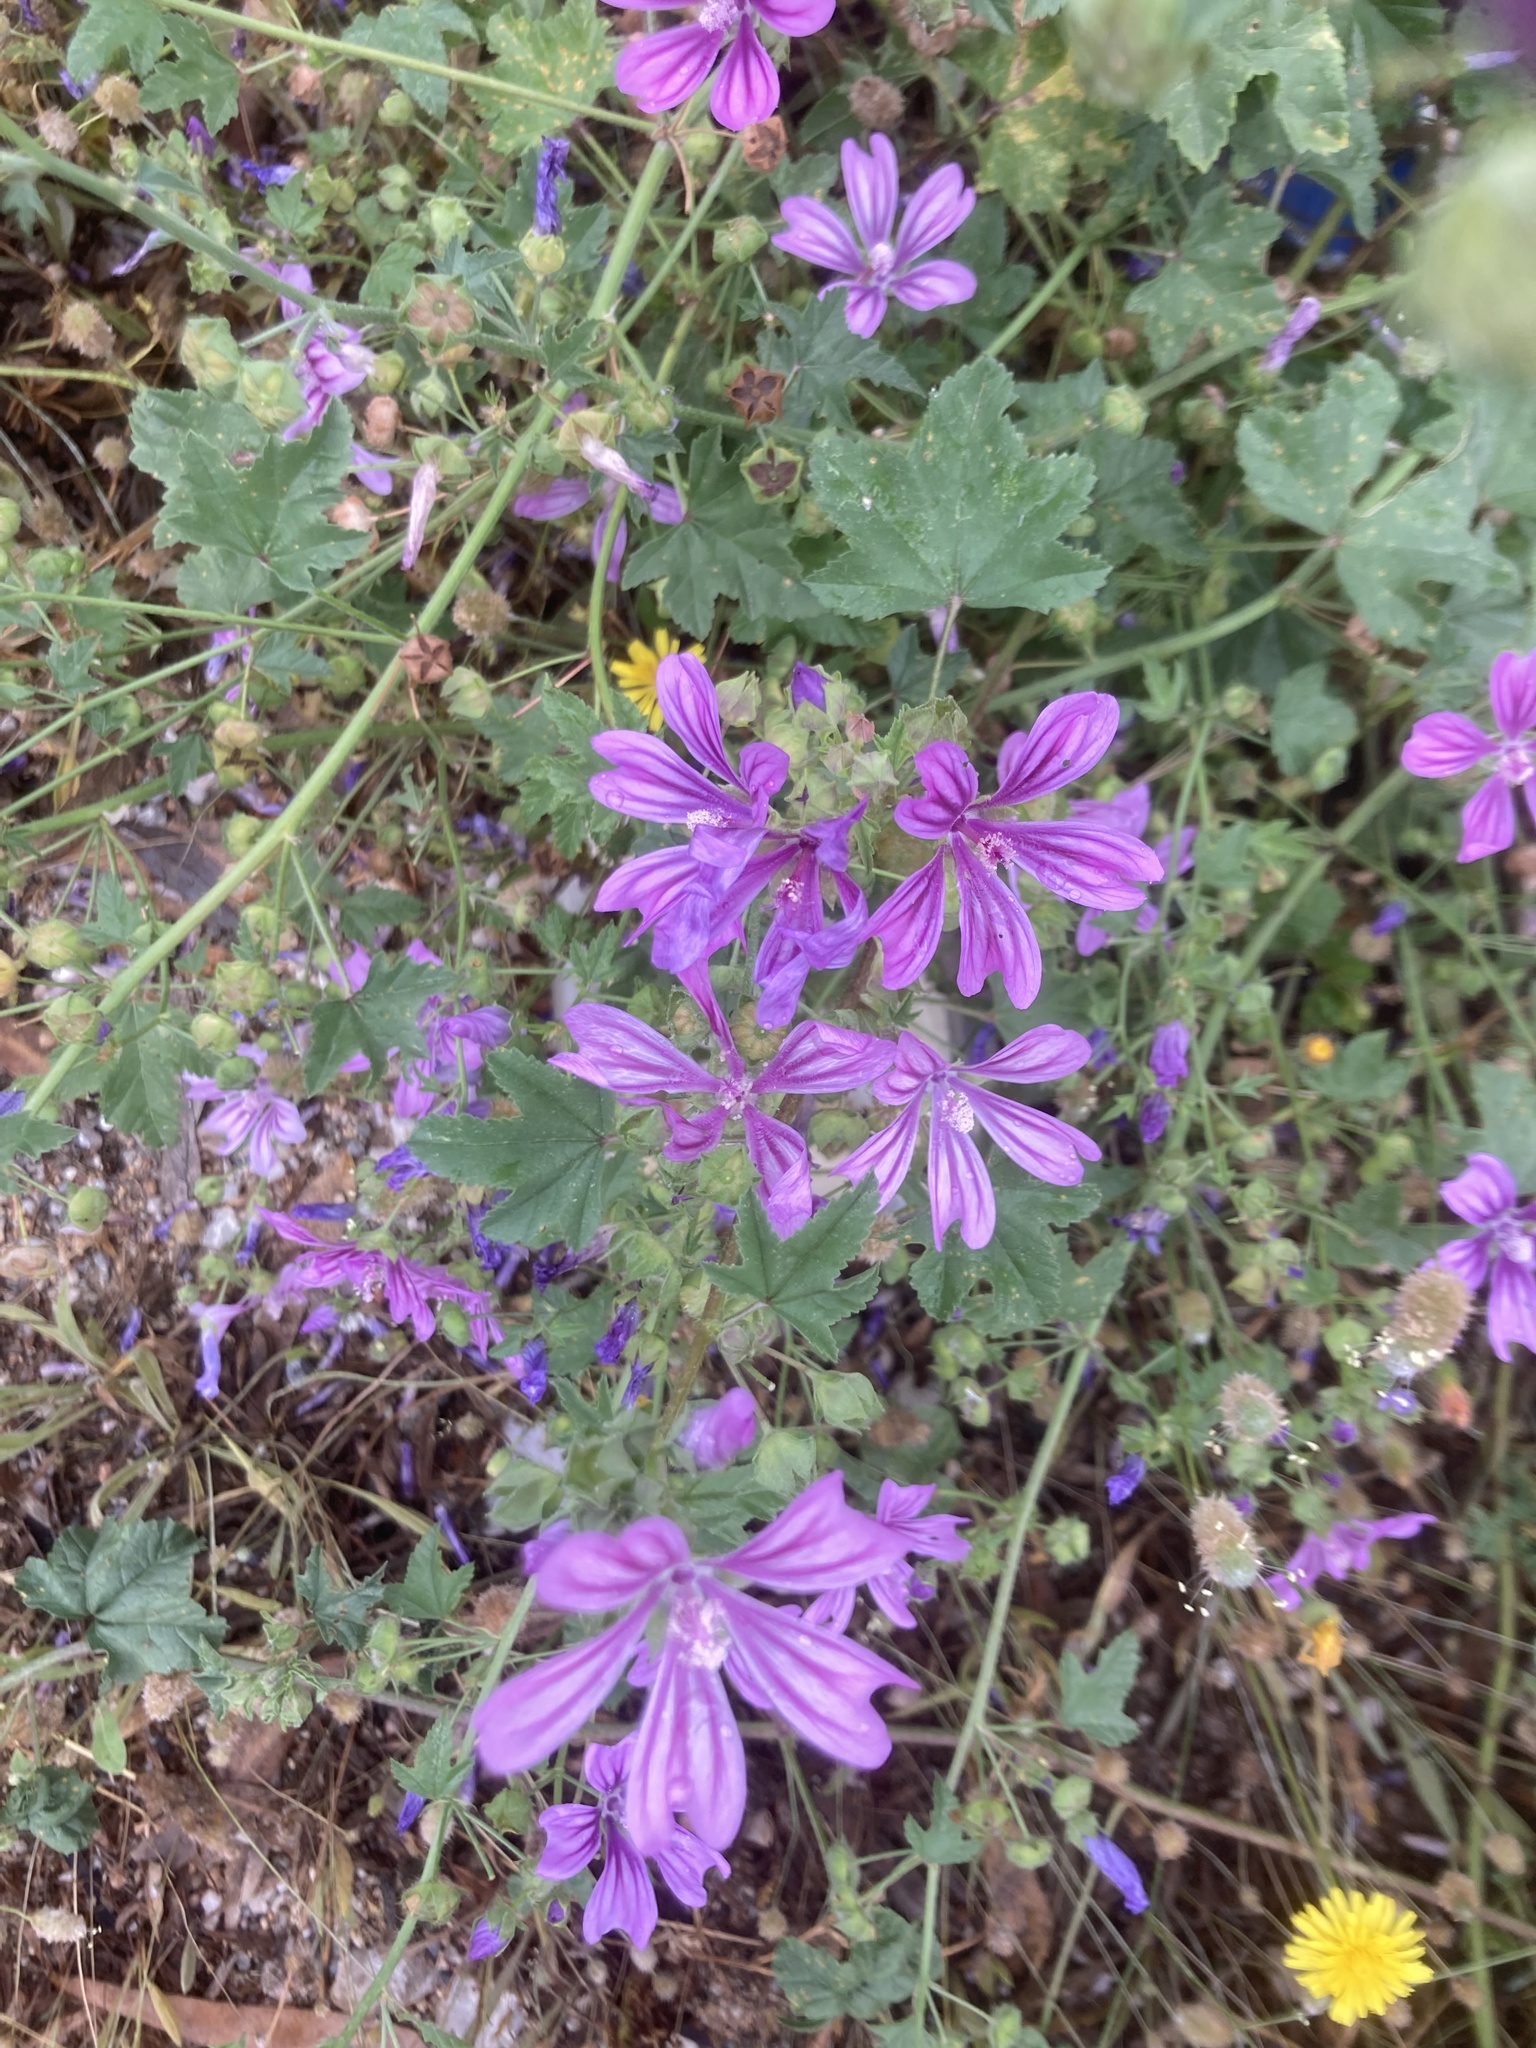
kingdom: Plantae
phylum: Tracheophyta
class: Magnoliopsida
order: Malvales
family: Malvaceae
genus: Malva
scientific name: Malva sylvestris
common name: Common mallow
